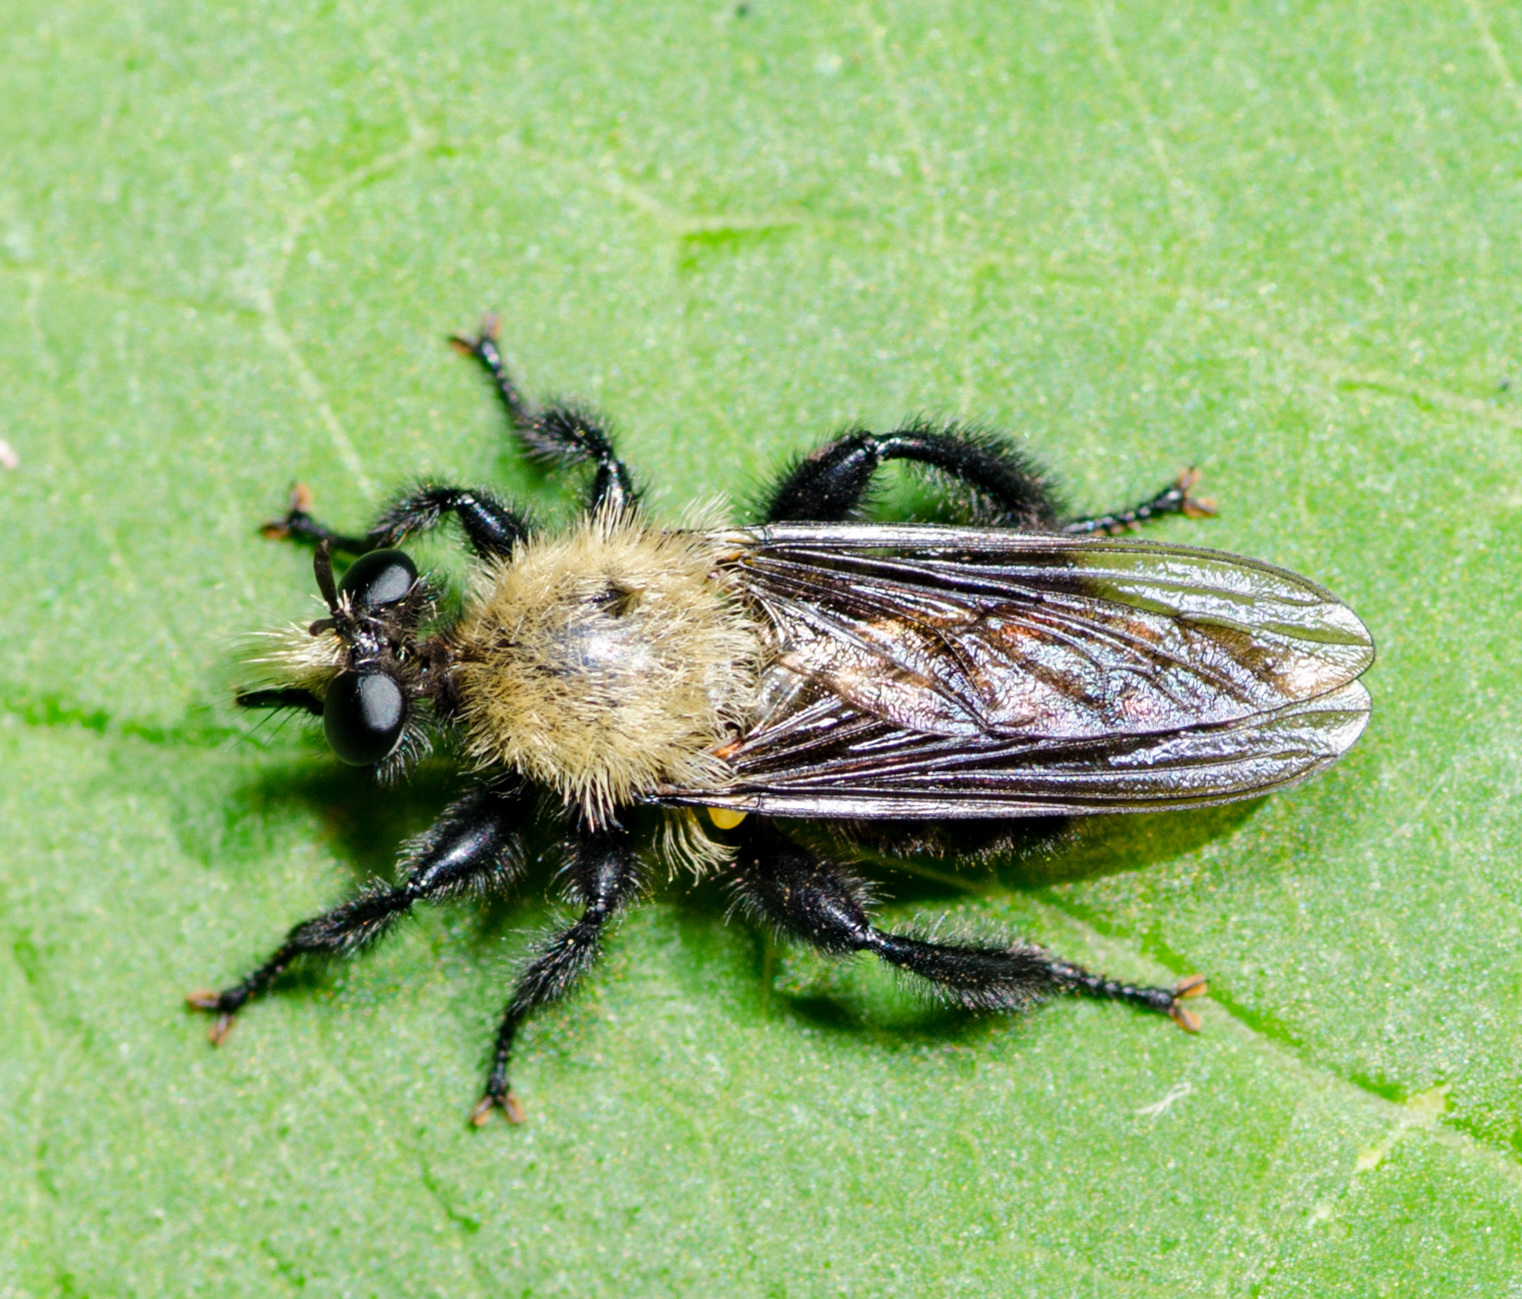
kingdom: Animalia
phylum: Arthropoda
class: Insecta
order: Diptera
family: Asilidae
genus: Laphria
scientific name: Laphria flavicollis
